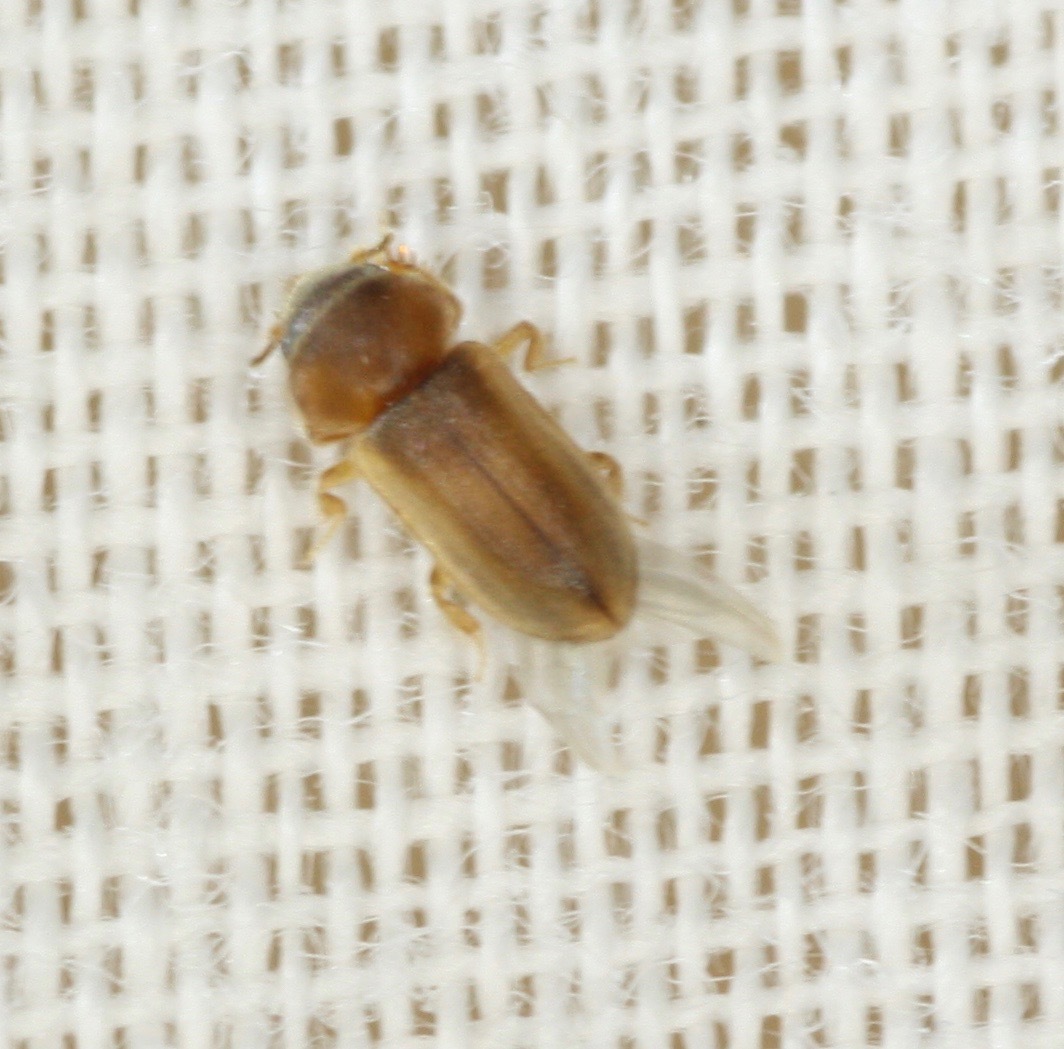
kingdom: Animalia
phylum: Arthropoda
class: Insecta
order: Coleoptera
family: Heteroceridae
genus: Tropicus
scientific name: Tropicus pusillus
